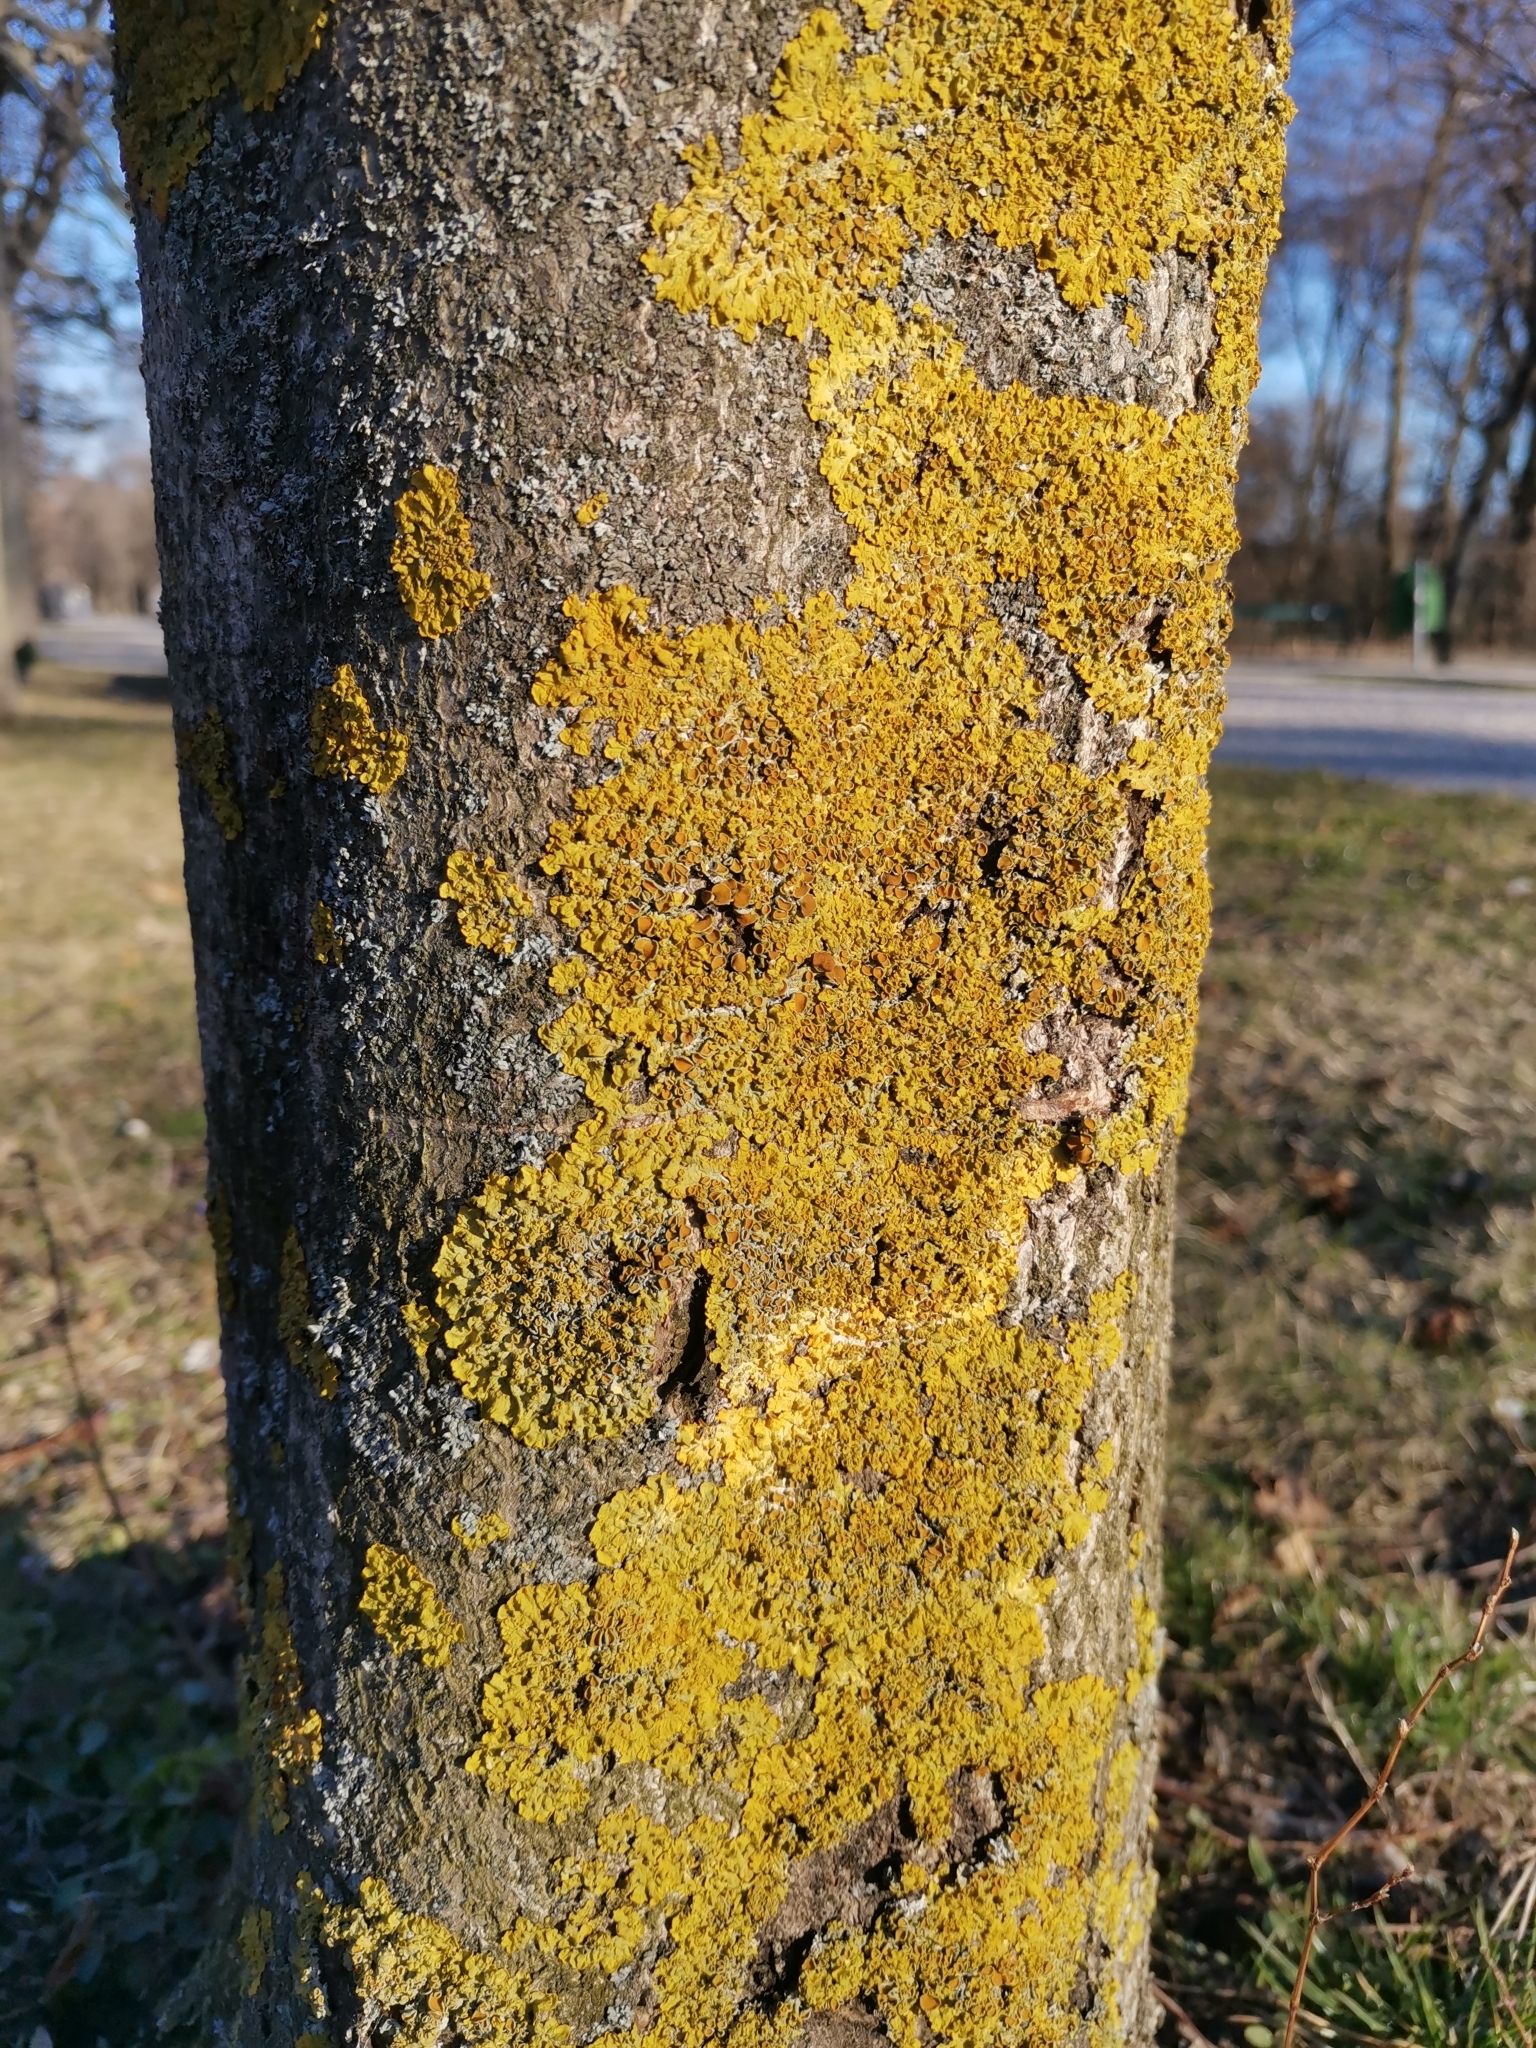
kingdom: Fungi
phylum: Ascomycota
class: Lecanoromycetes
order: Teloschistales
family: Teloschistaceae
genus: Xanthoria
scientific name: Xanthoria parietina
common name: Common orange lichen
